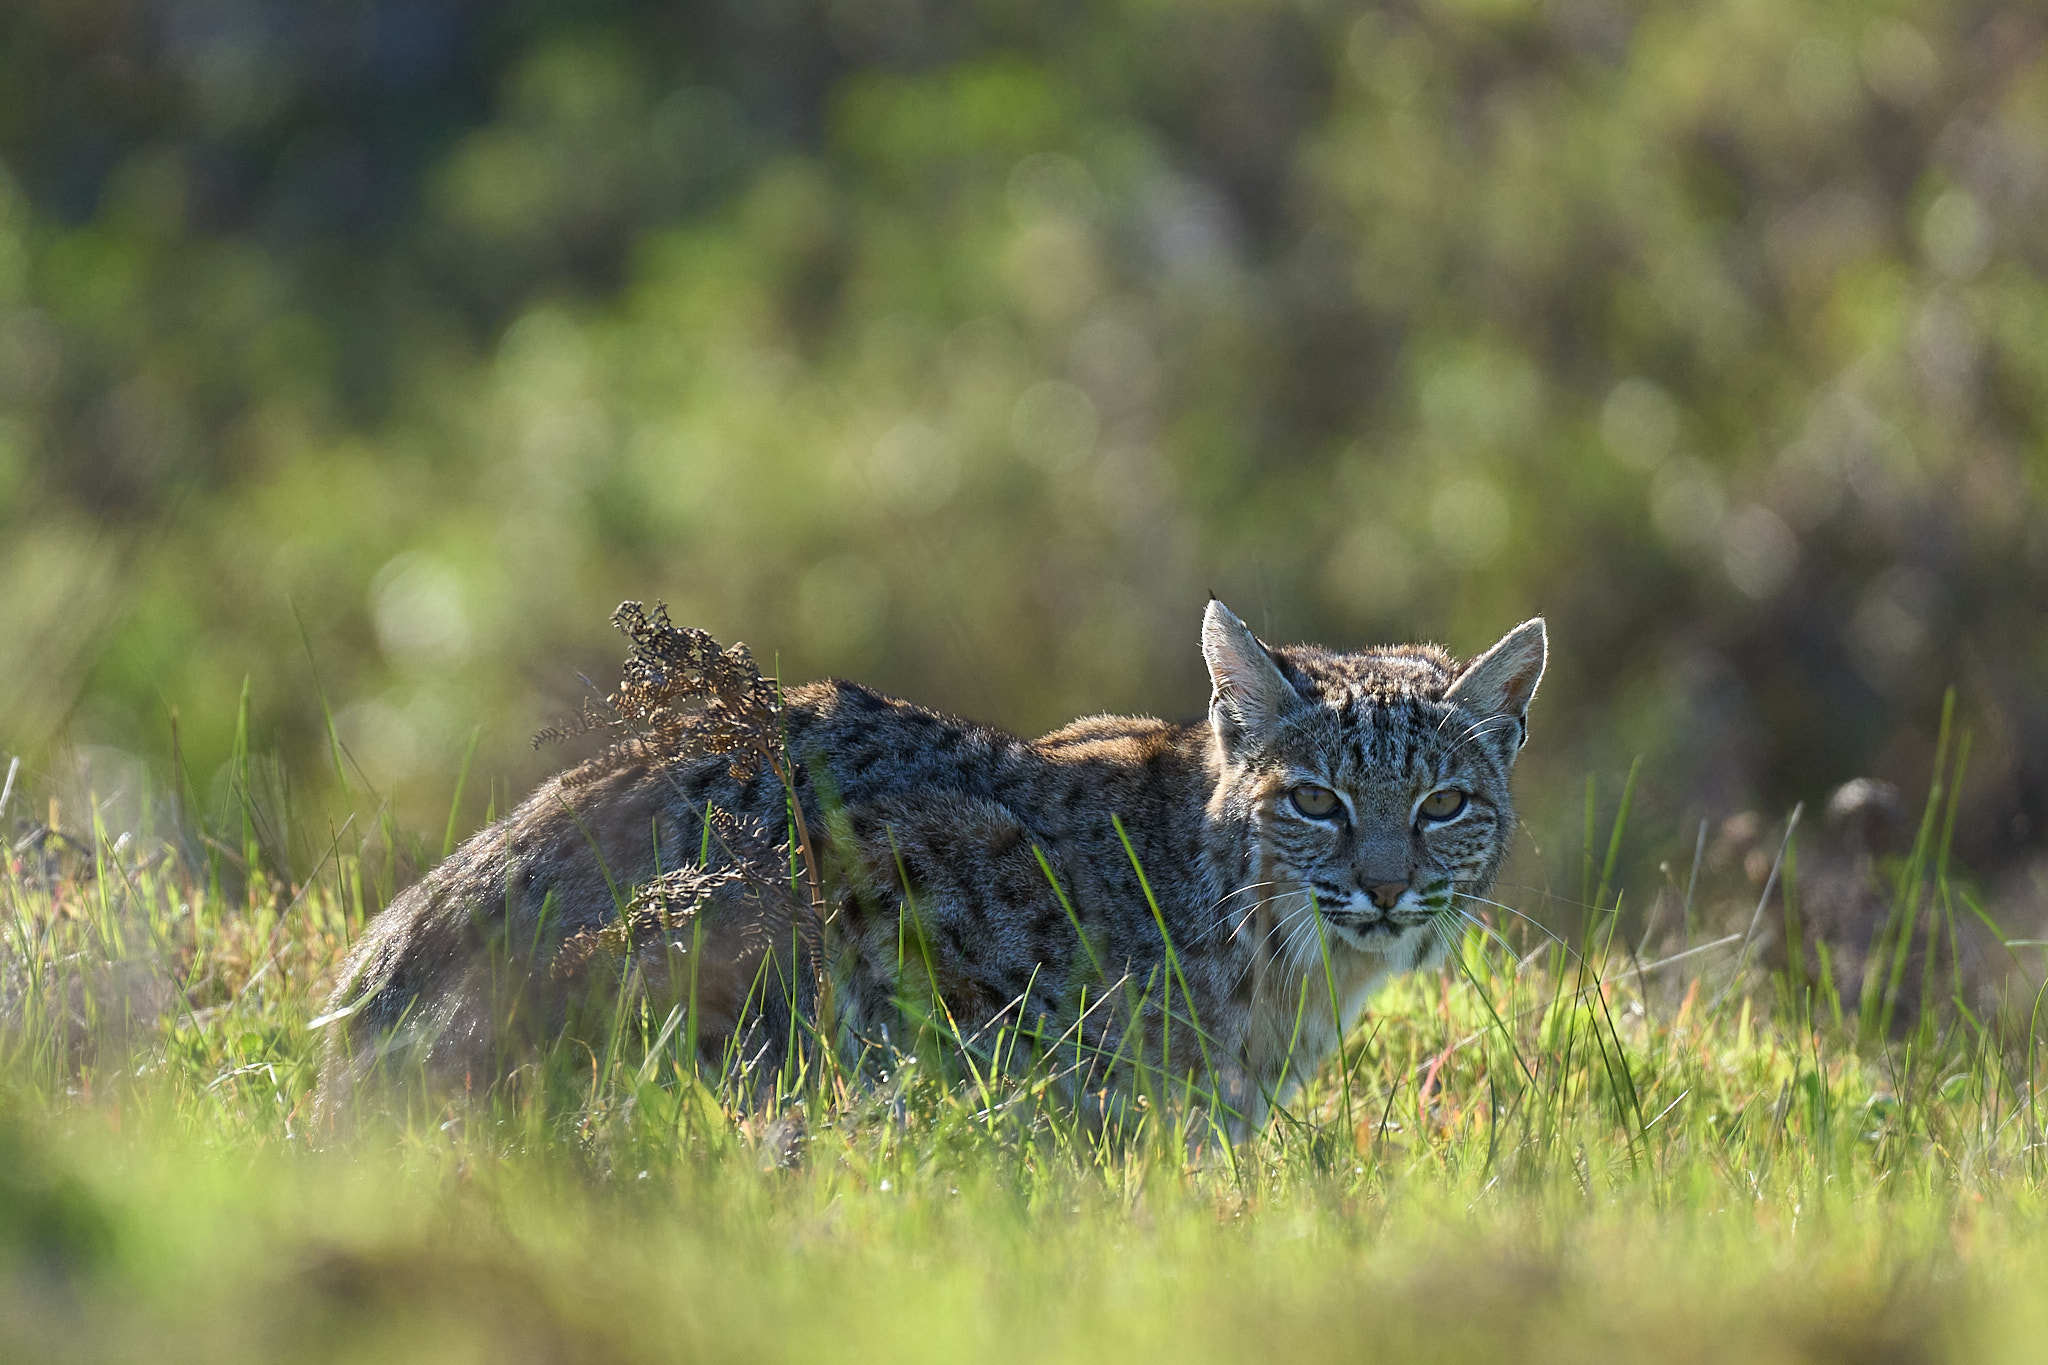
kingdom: Animalia
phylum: Chordata
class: Mammalia
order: Carnivora
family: Felidae
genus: Lynx
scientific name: Lynx rufus
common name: Bobcat
